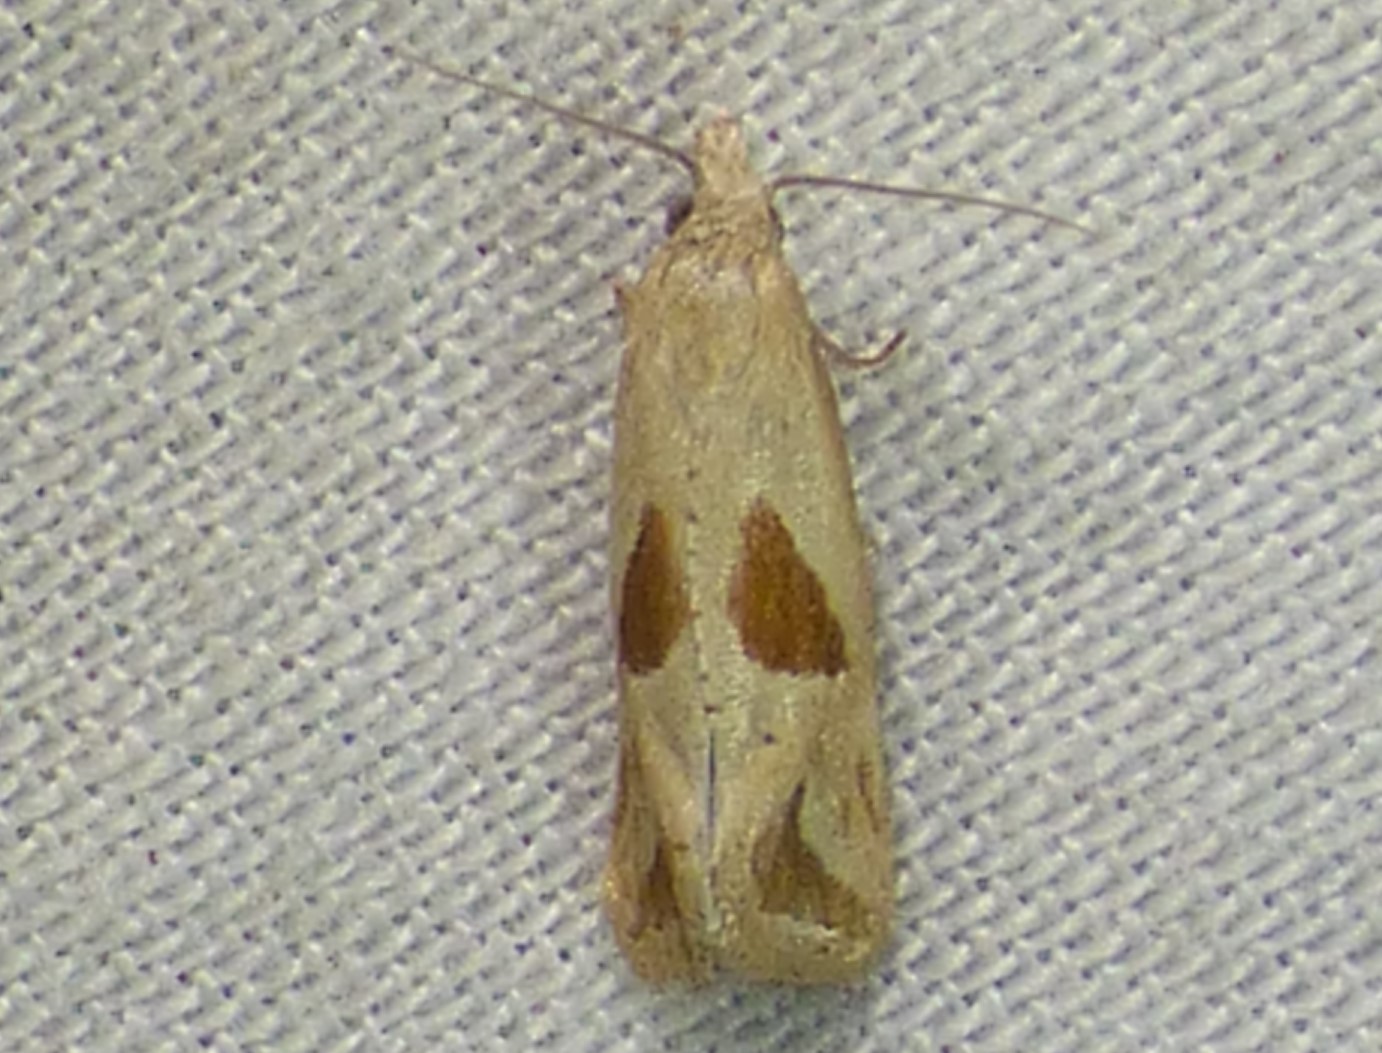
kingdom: Animalia
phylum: Arthropoda
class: Insecta
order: Lepidoptera
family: Tortricidae
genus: Eugnosta
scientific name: Eugnosta bimaculana
